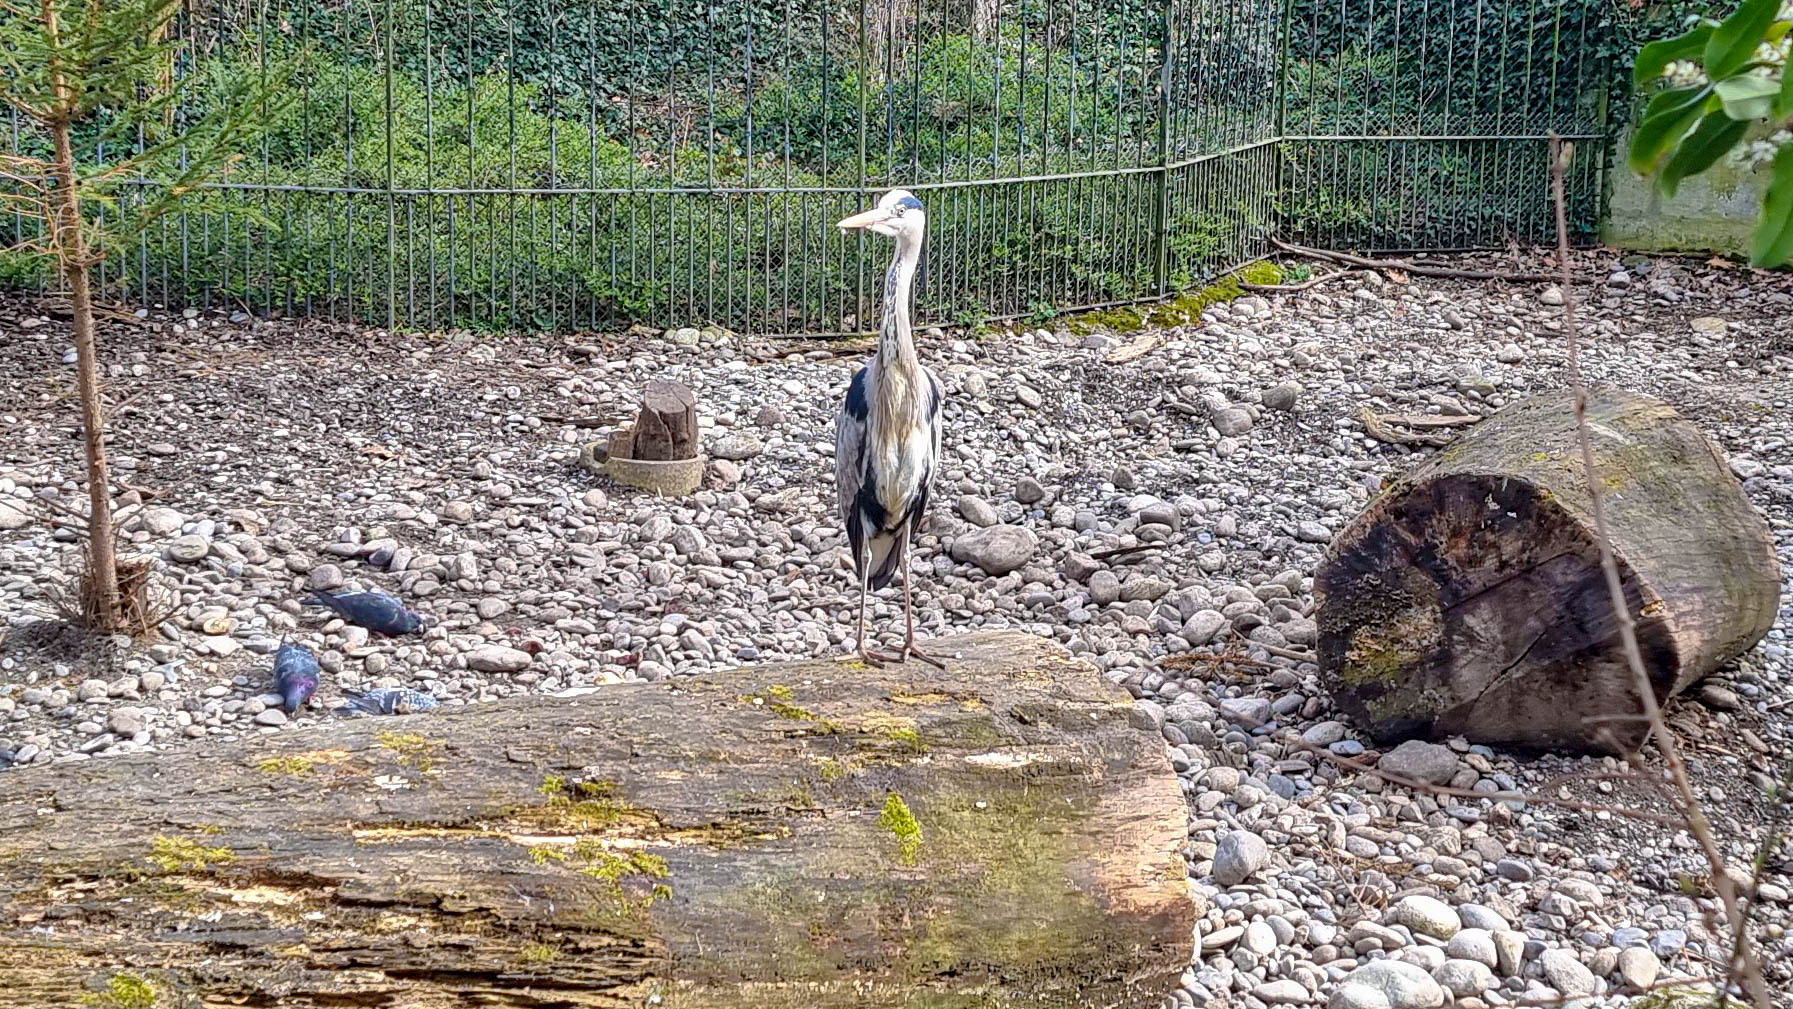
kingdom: Animalia
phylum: Chordata
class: Aves
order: Pelecaniformes
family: Ardeidae
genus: Ardea
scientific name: Ardea cinerea
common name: Grey heron
